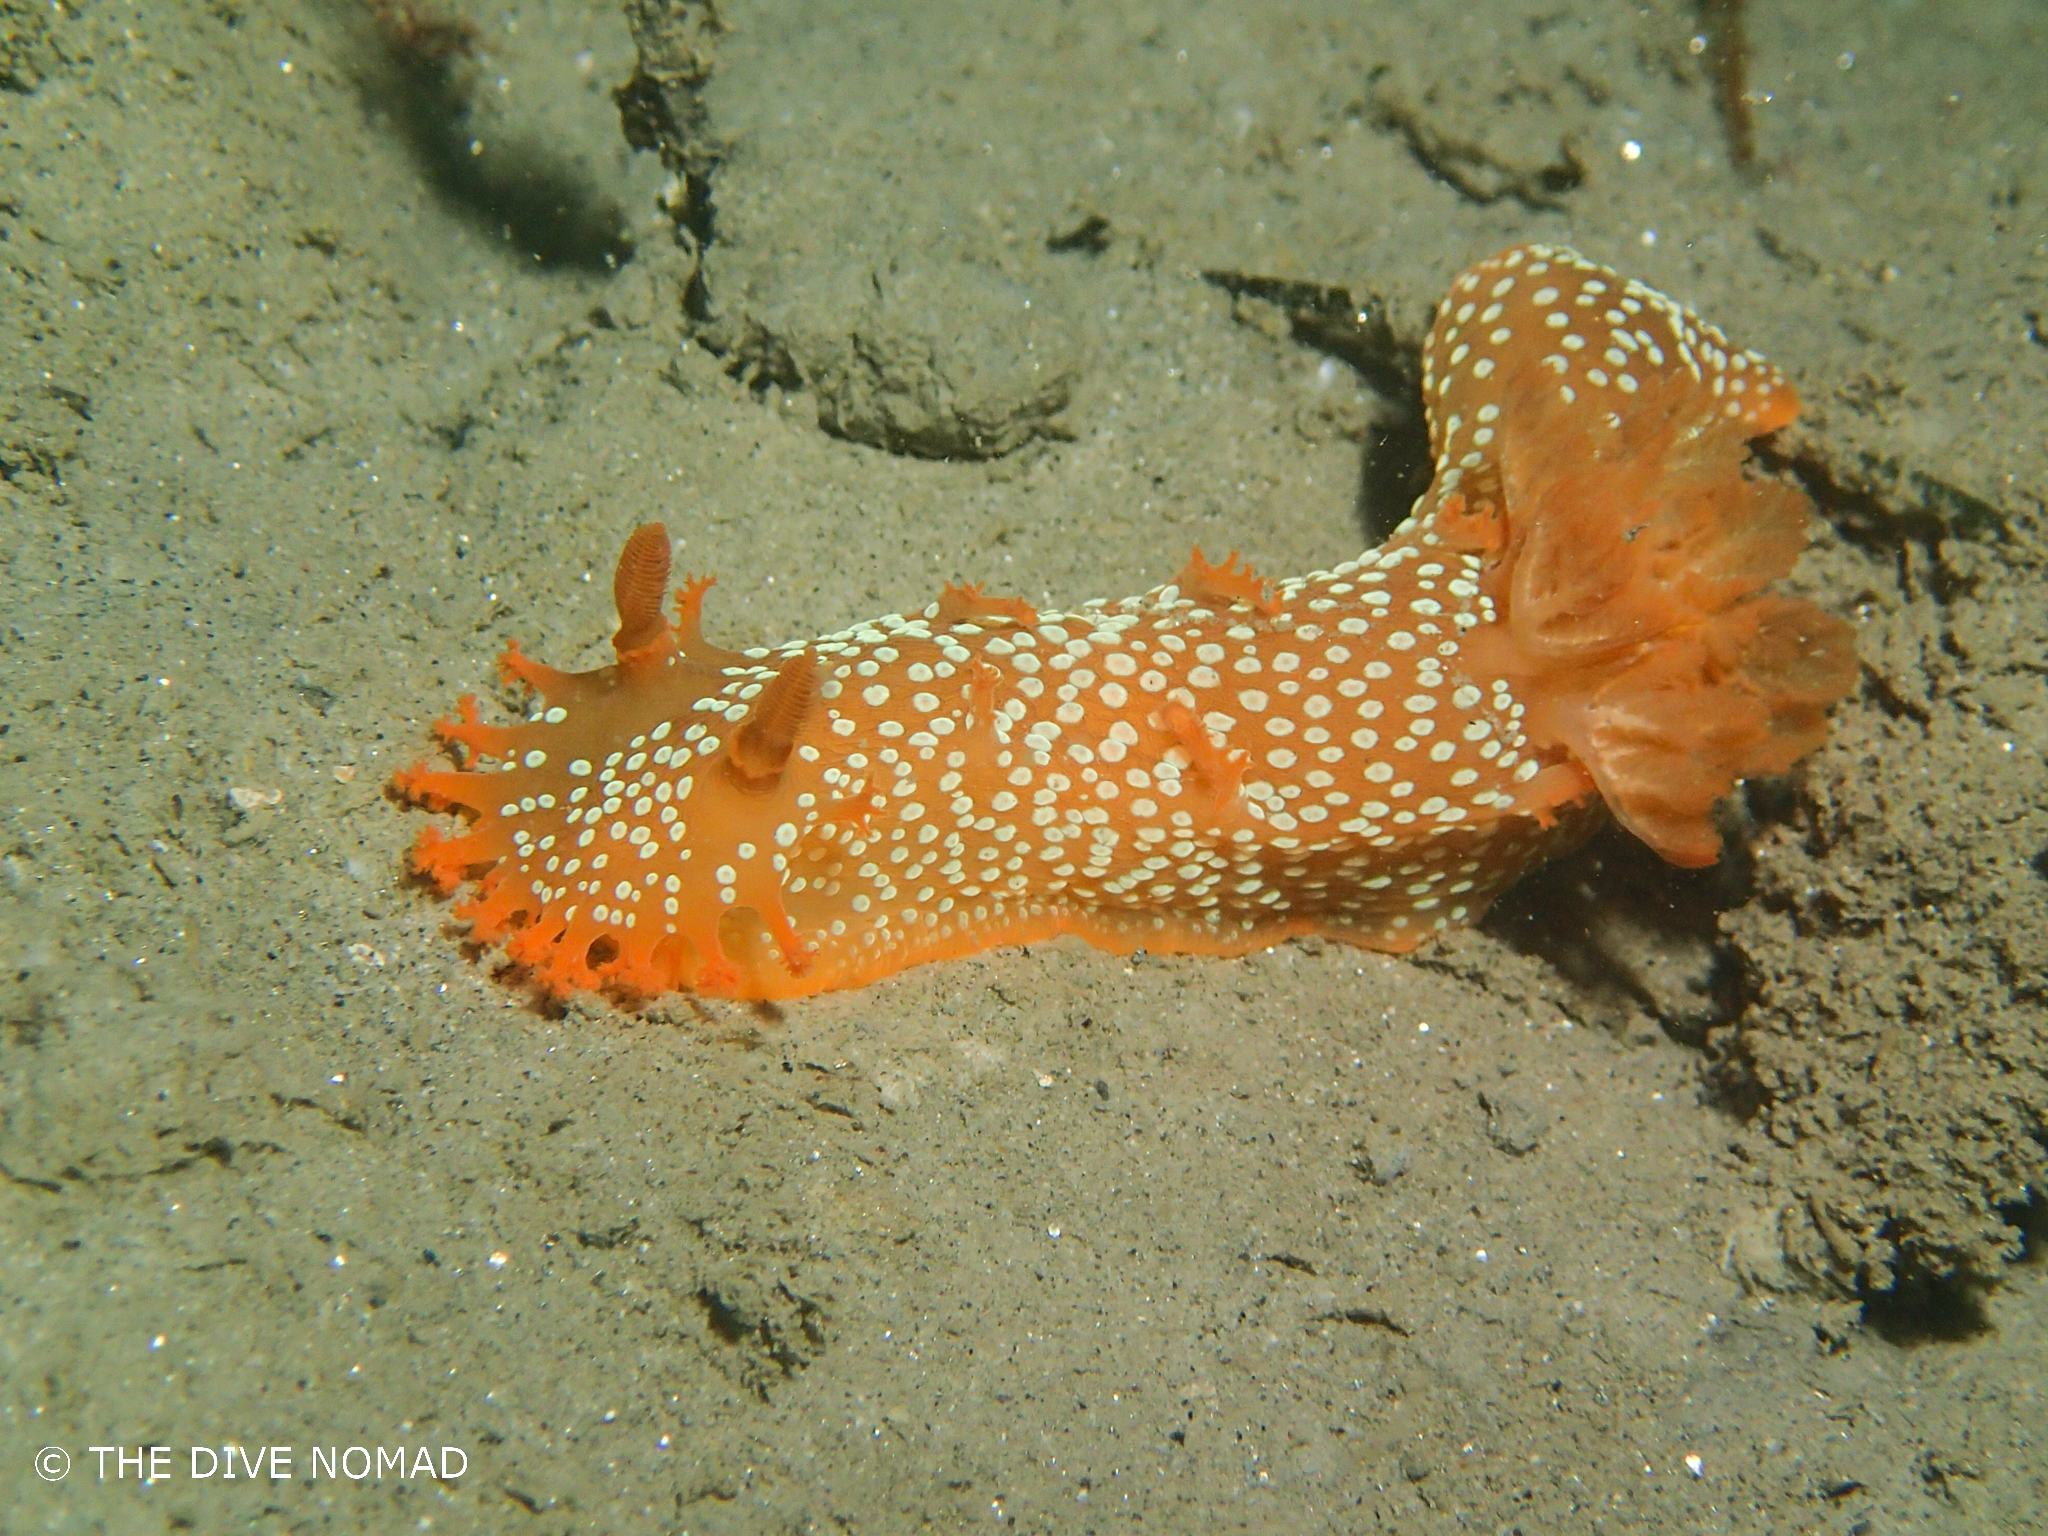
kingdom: Animalia
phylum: Mollusca
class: Gastropoda
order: Nudibranchia
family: Polyceridae
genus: Triopha
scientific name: Triopha maculata
